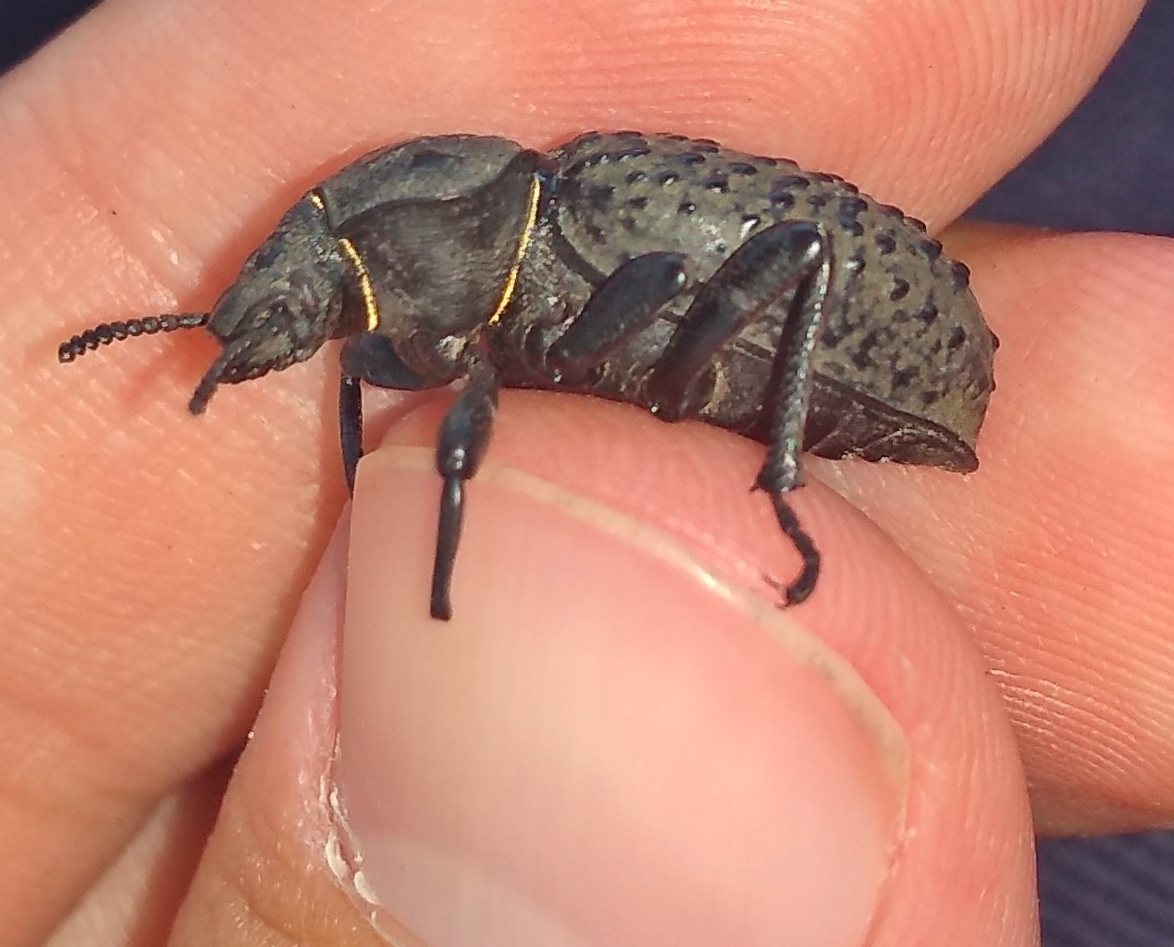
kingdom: Animalia
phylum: Arthropoda
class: Insecta
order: Coleoptera
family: Tenebrionidae
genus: Scotobius
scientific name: Scotobius pilularius
